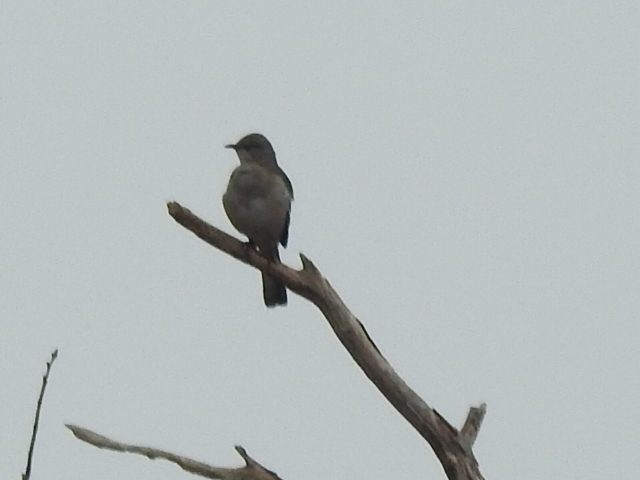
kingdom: Animalia
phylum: Chordata
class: Aves
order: Passeriformes
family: Mimidae
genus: Mimus
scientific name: Mimus polyglottos
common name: Northern mockingbird
